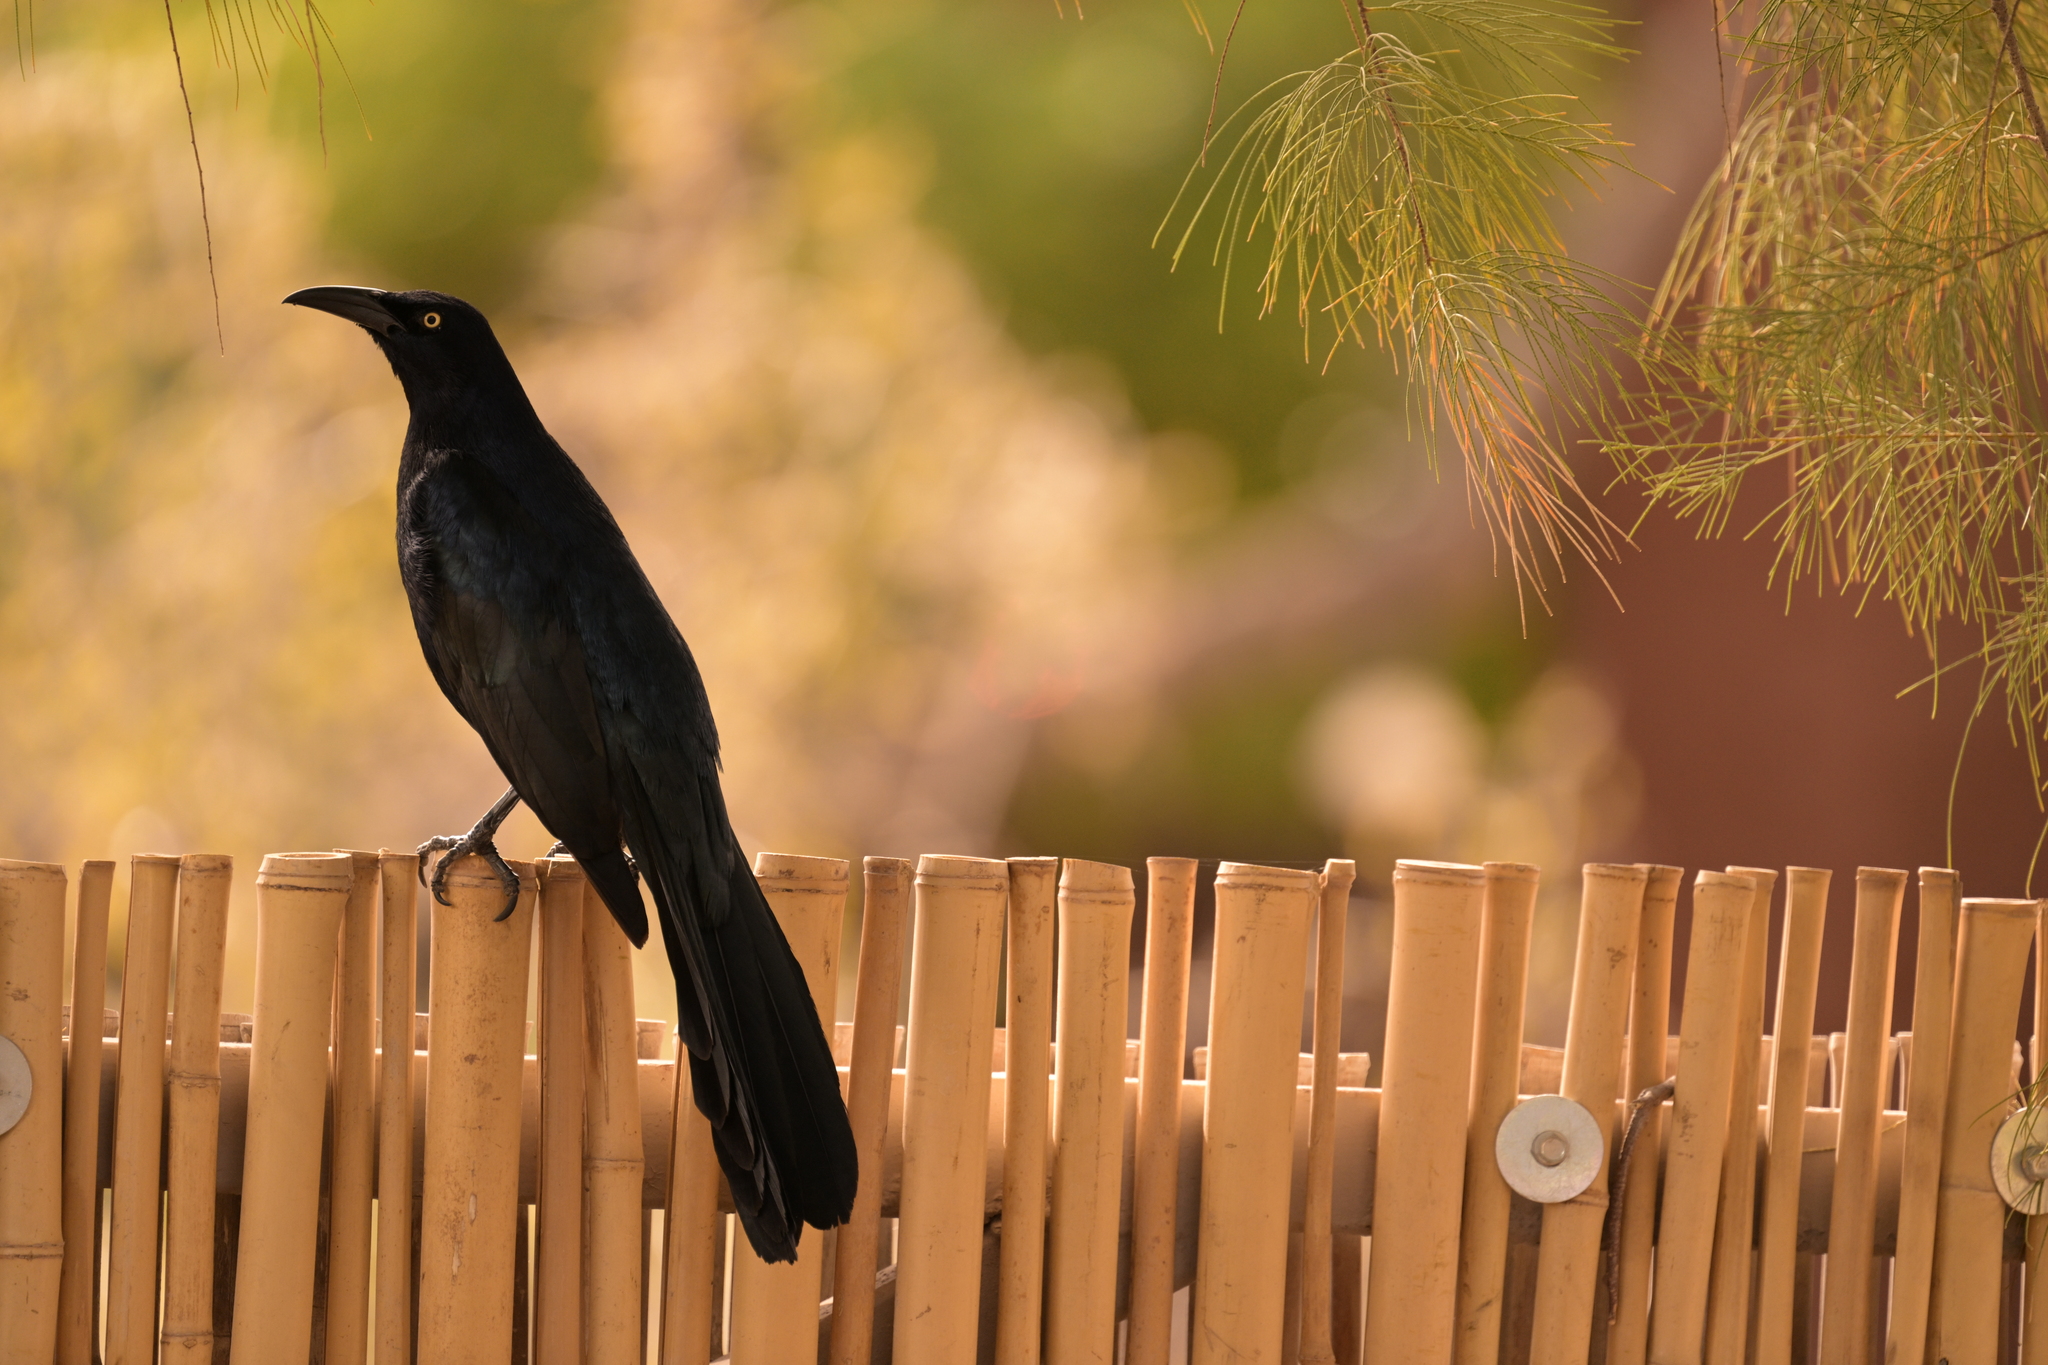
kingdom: Animalia
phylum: Chordata
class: Aves
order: Passeriformes
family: Icteridae
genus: Quiscalus
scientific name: Quiscalus mexicanus
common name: Great-tailed grackle
